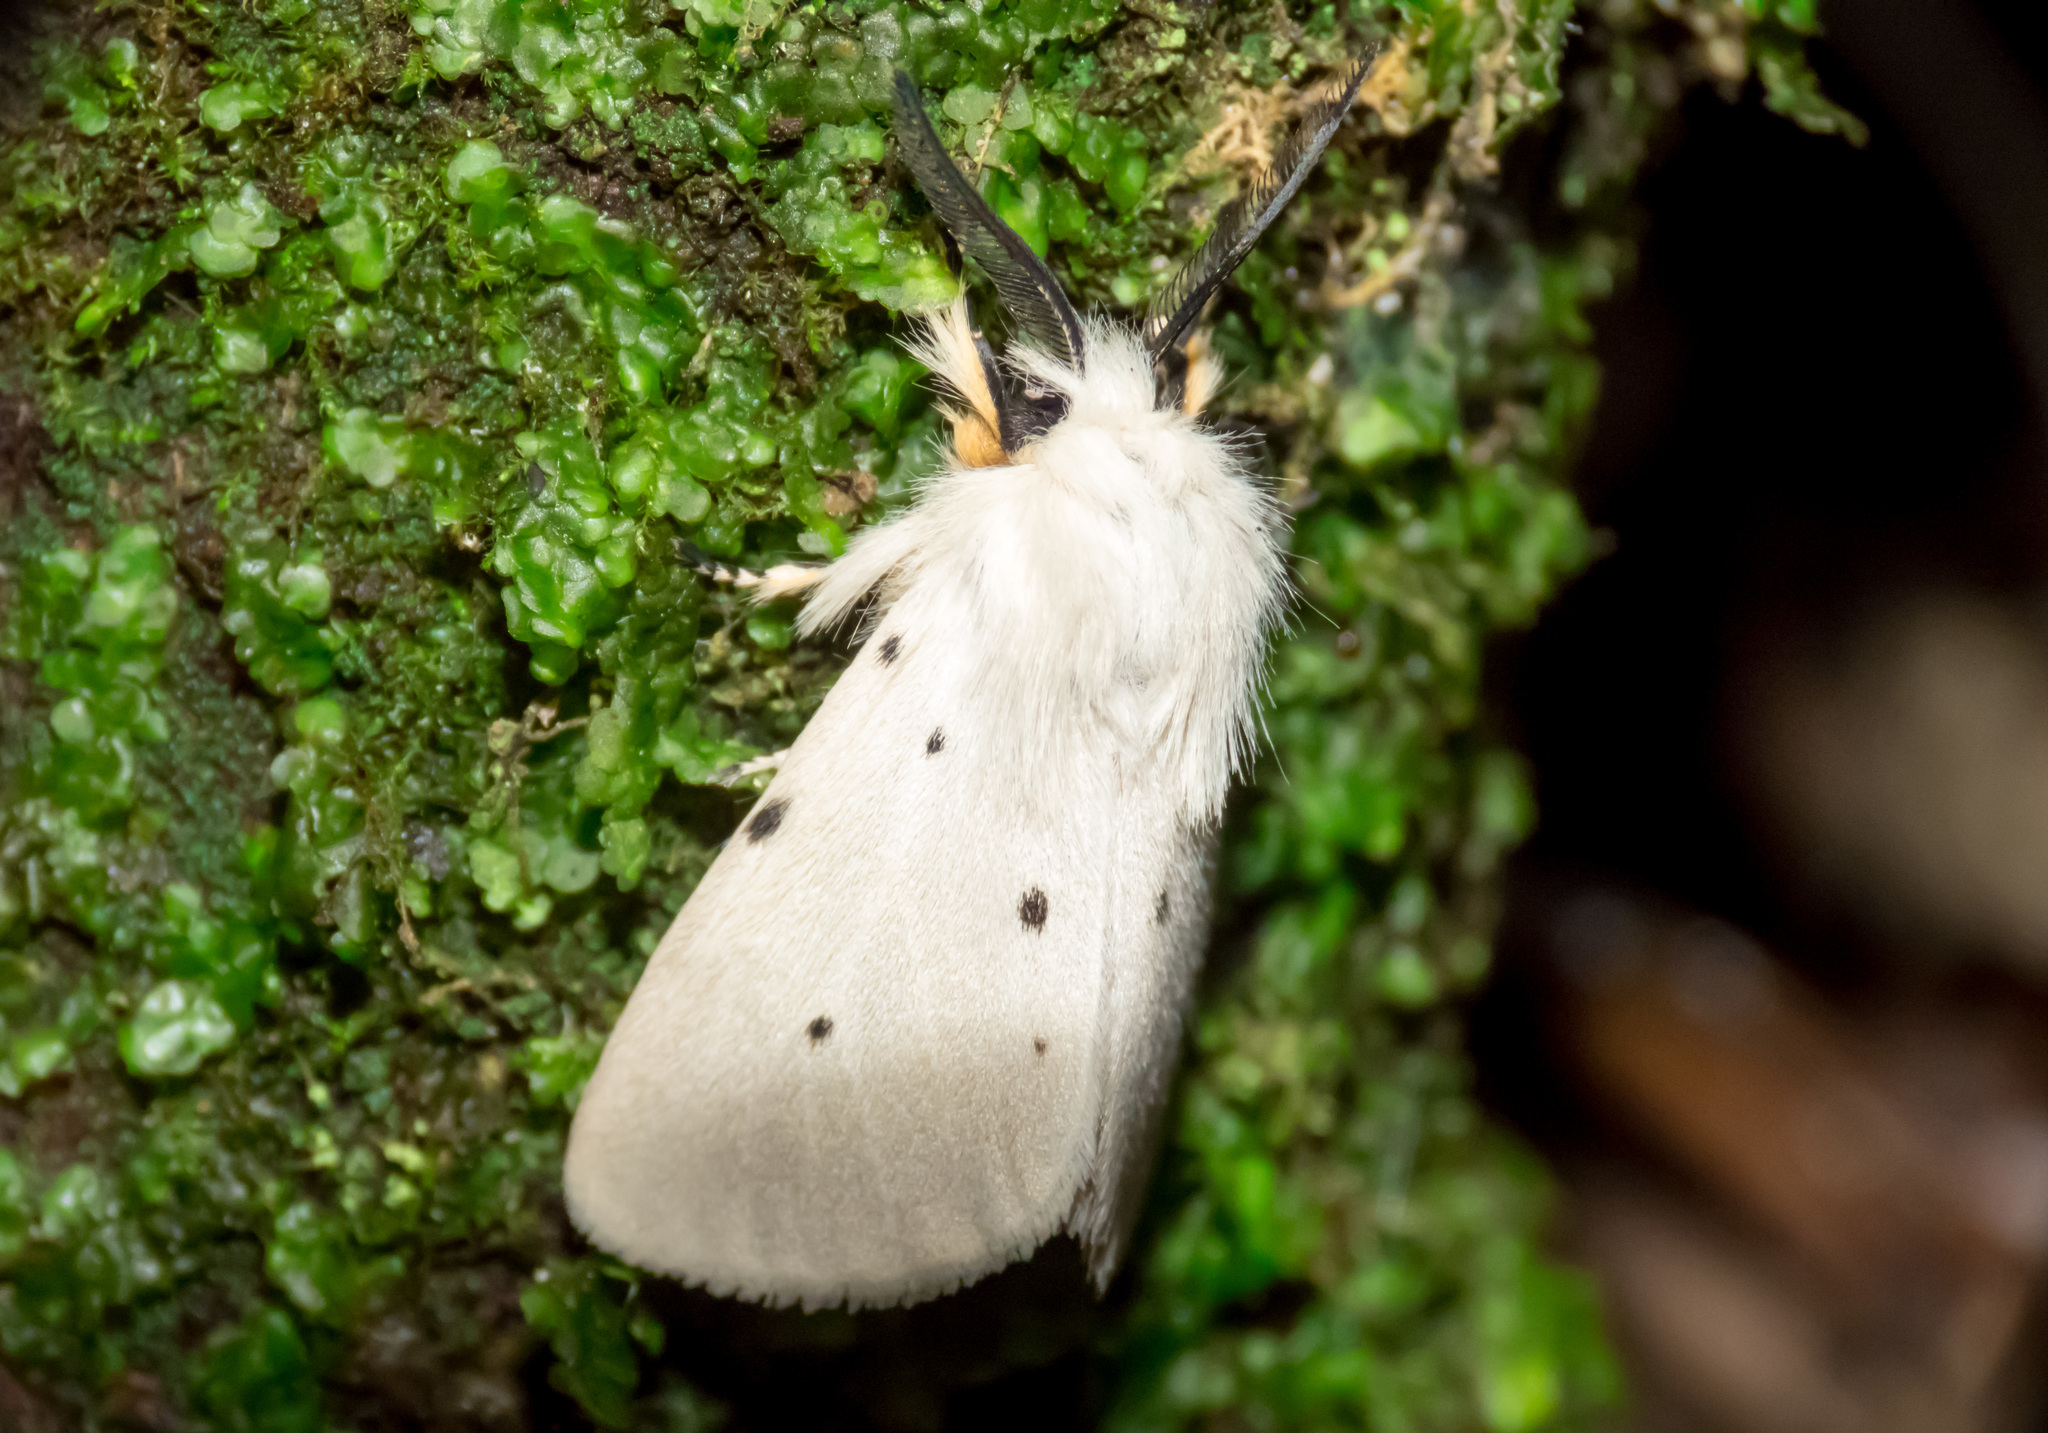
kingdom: Animalia
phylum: Arthropoda
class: Insecta
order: Lepidoptera
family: Erebidae
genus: Diaphora
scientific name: Diaphora mendica
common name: Muslin moth
